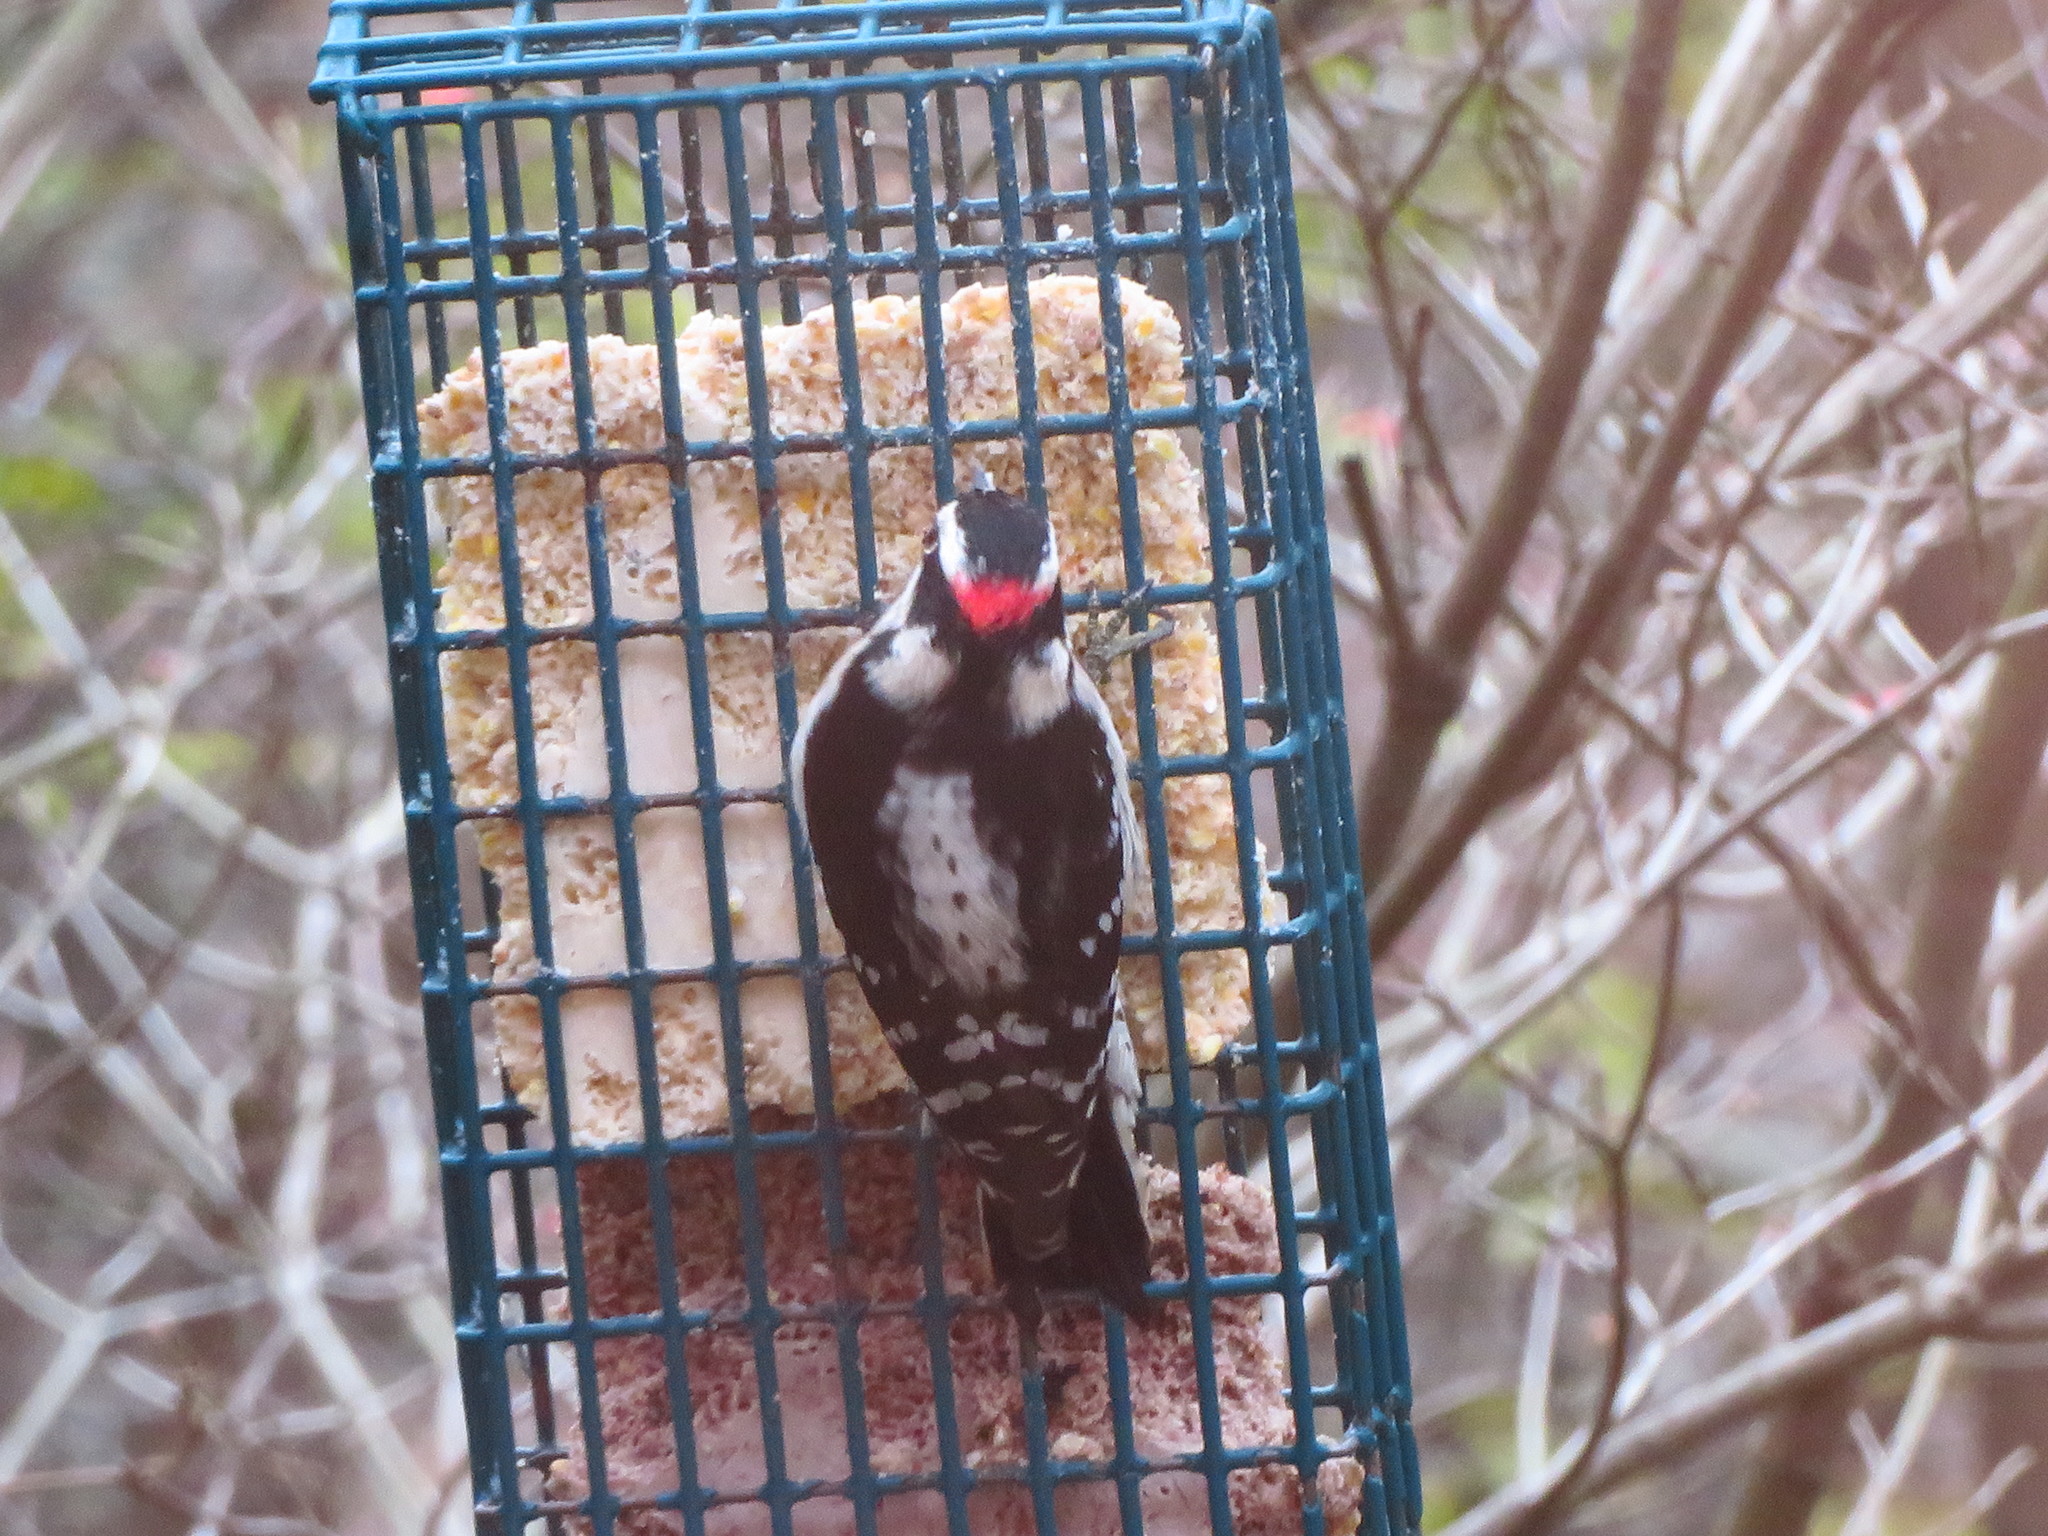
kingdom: Animalia
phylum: Chordata
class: Aves
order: Piciformes
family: Picidae
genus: Dryobates
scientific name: Dryobates pubescens
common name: Downy woodpecker
